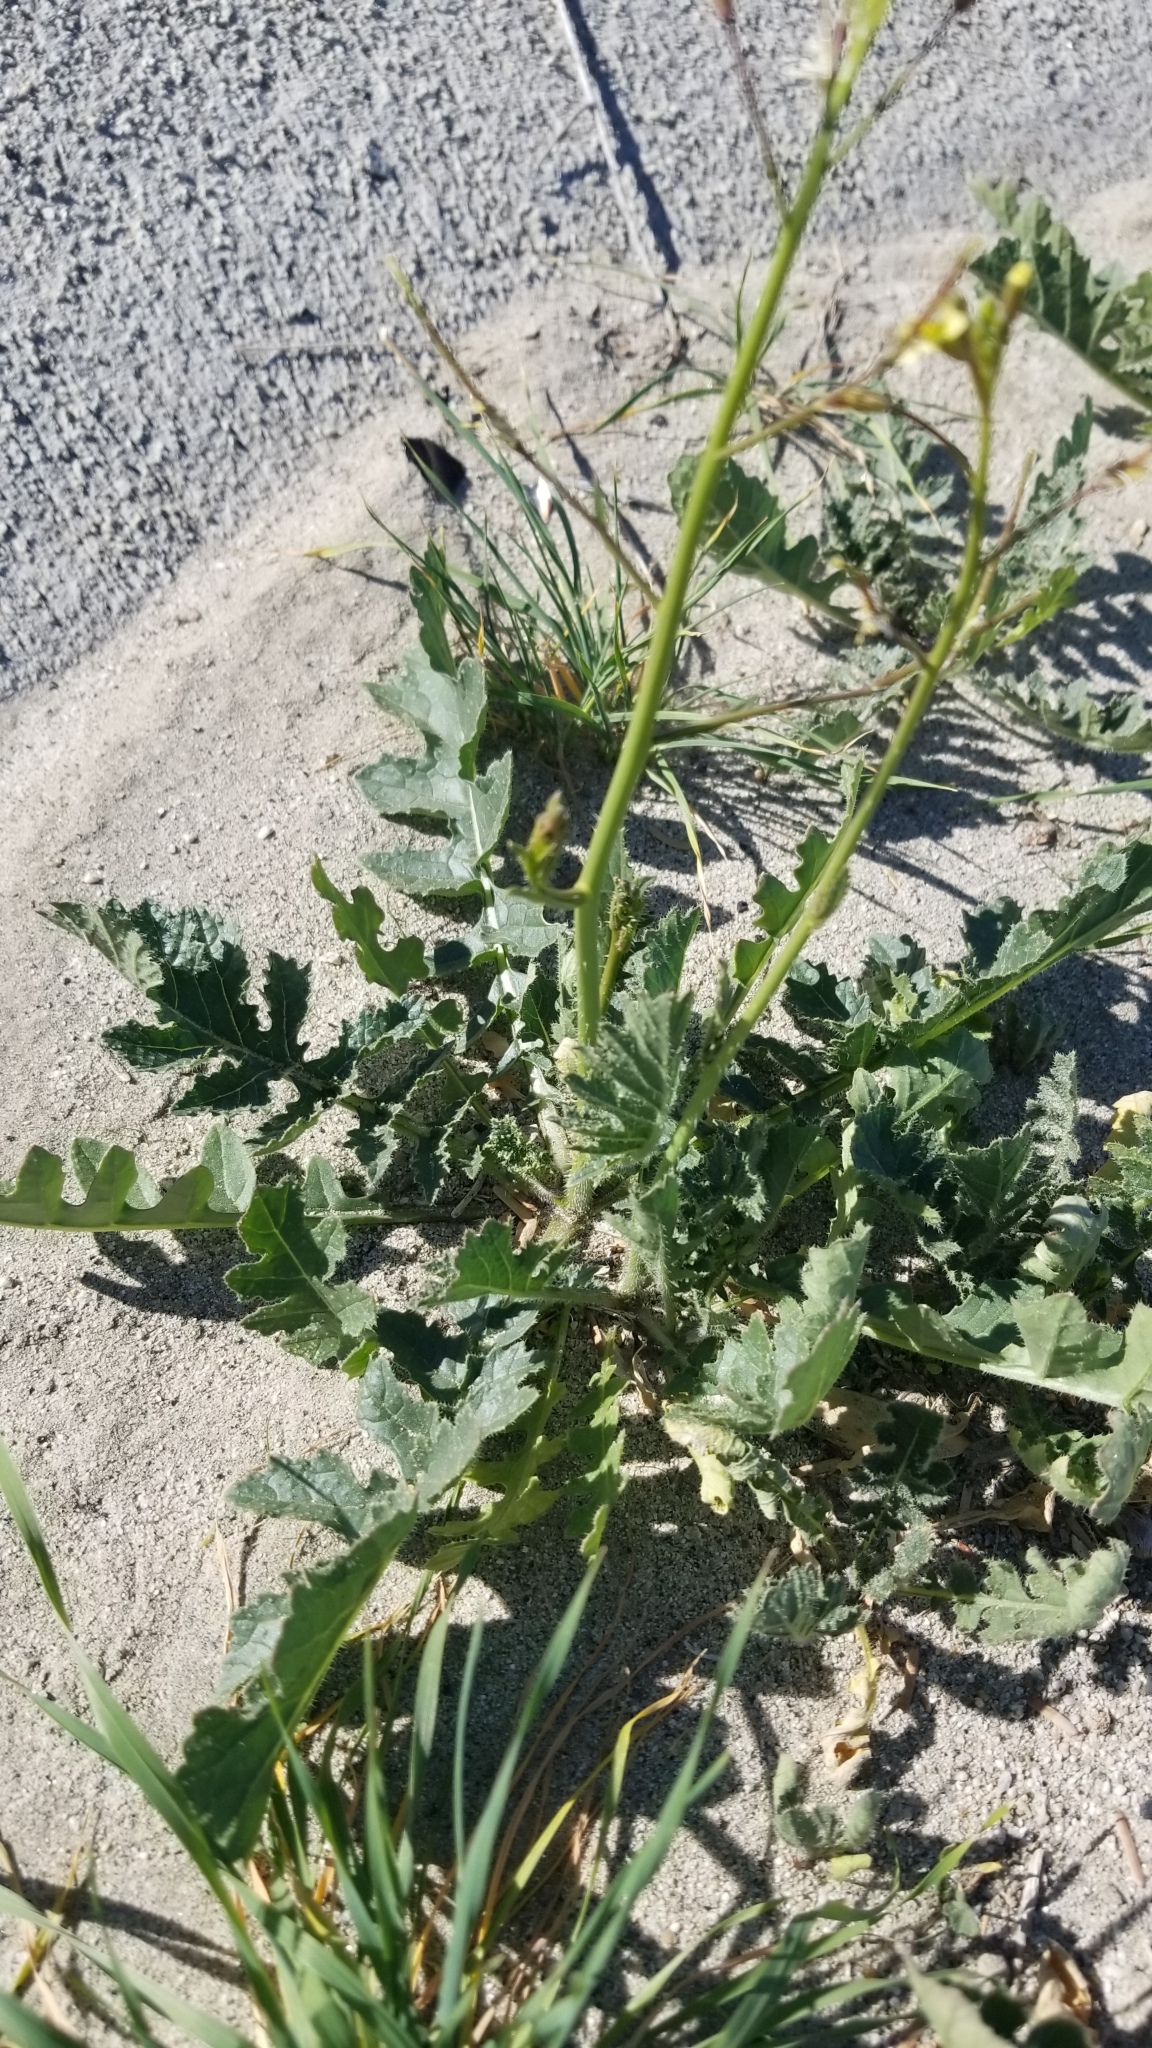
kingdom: Plantae
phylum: Tracheophyta
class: Magnoliopsida
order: Brassicales
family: Brassicaceae
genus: Brassica
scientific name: Brassica tournefortii
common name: Pale cabbage
